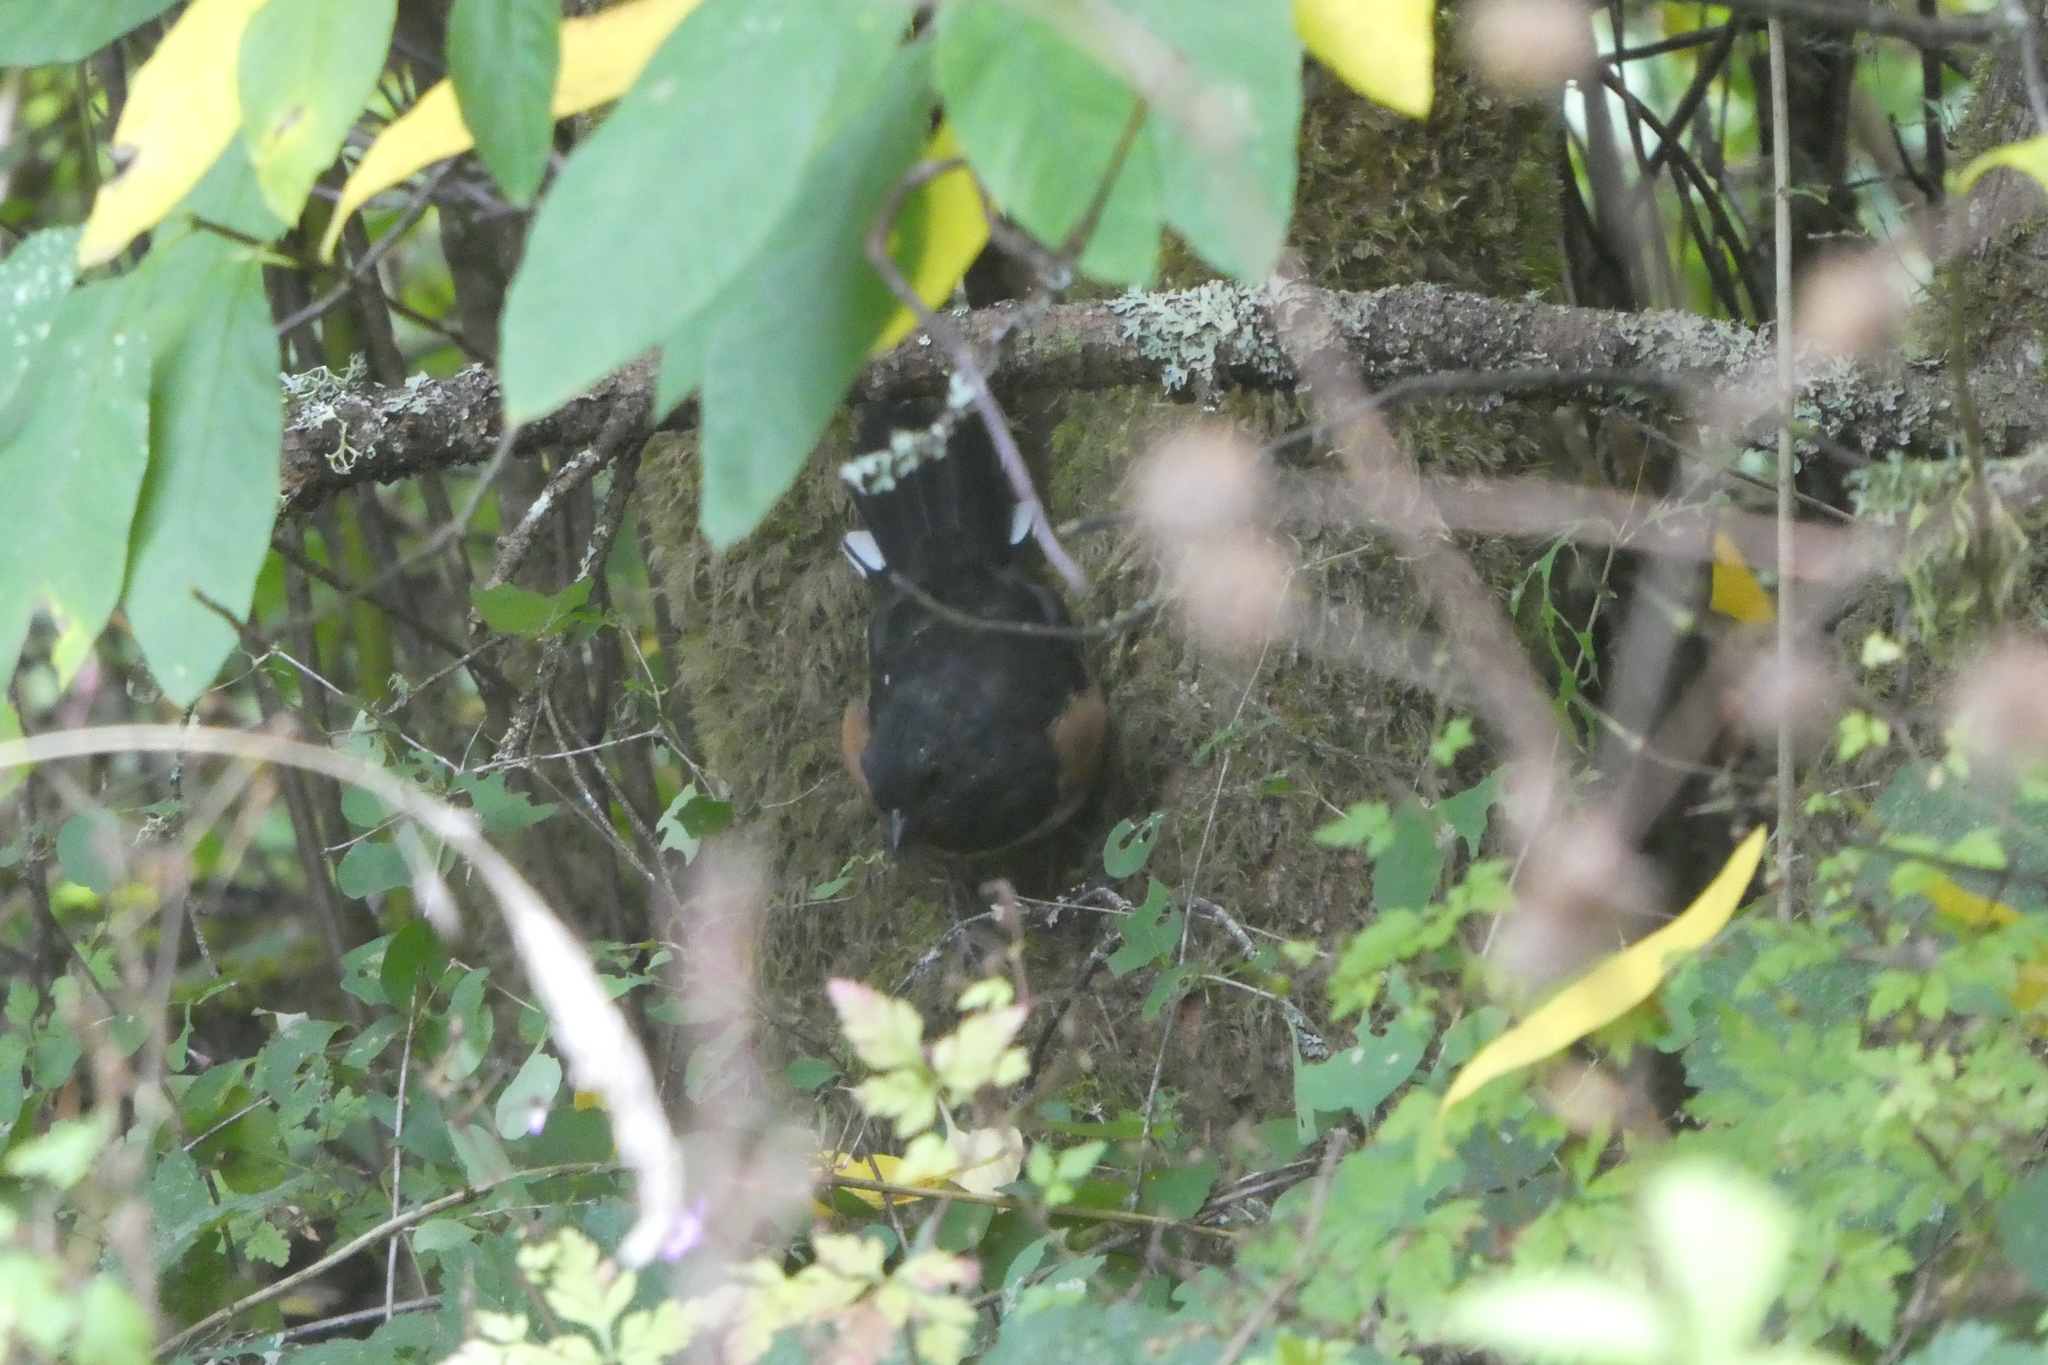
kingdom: Animalia
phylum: Chordata
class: Aves
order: Passeriformes
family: Passerellidae
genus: Pipilo
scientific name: Pipilo maculatus
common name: Spotted towhee
